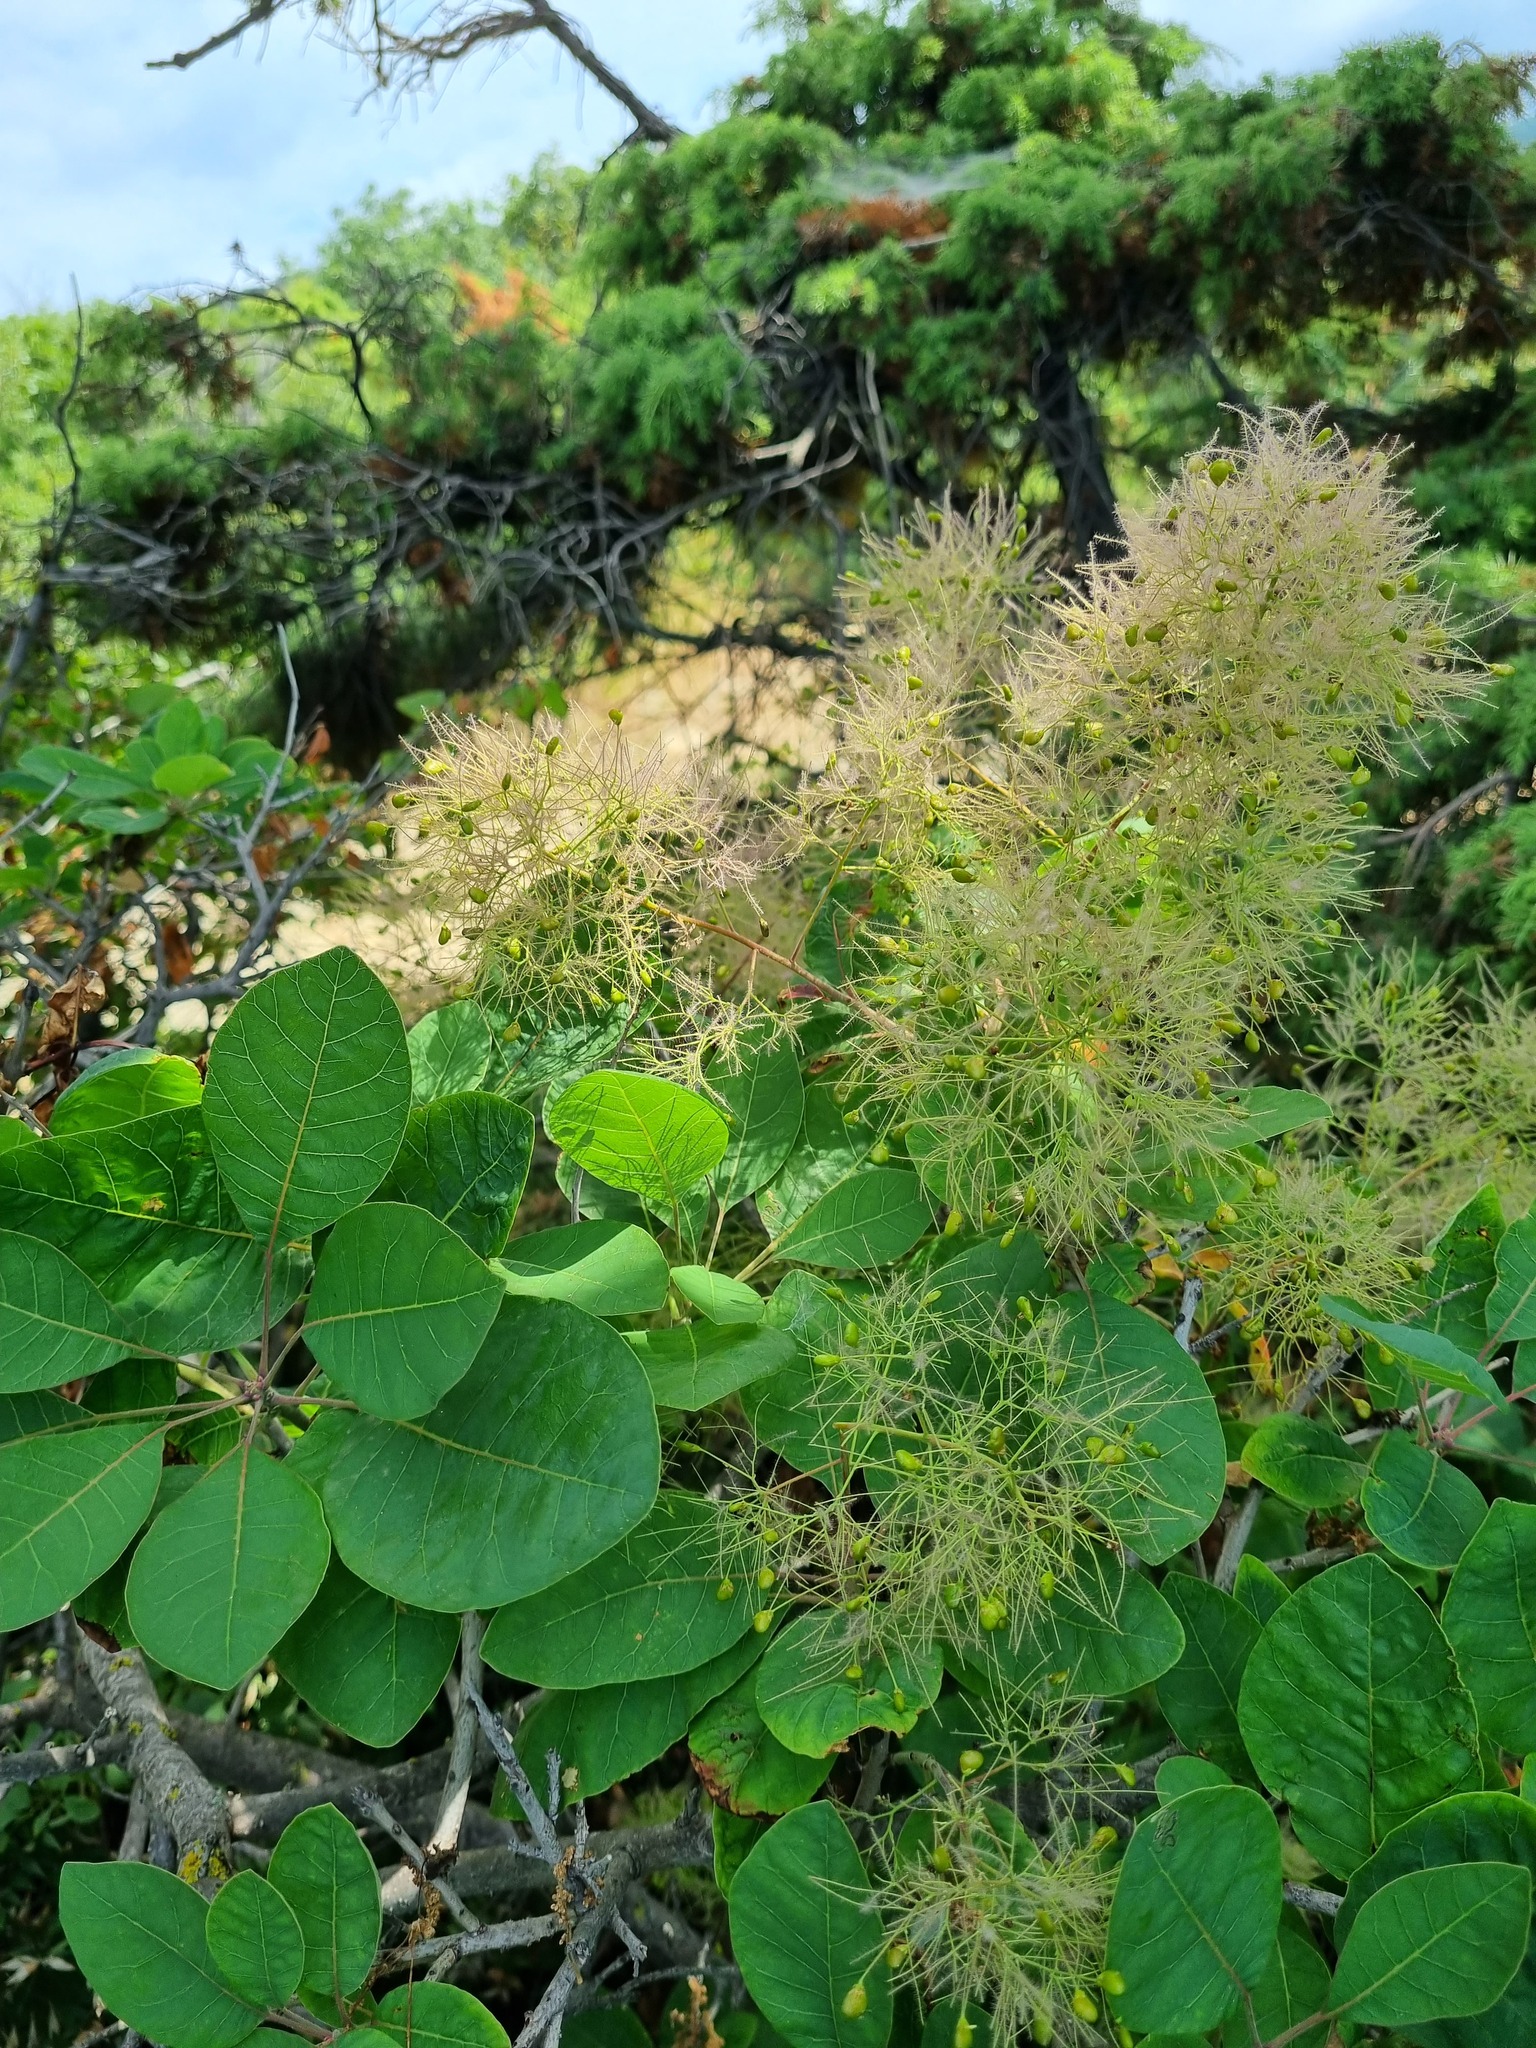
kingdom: Plantae
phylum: Tracheophyta
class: Magnoliopsida
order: Sapindales
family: Anacardiaceae
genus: Cotinus
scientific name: Cotinus coggygria
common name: Smoke-tree
